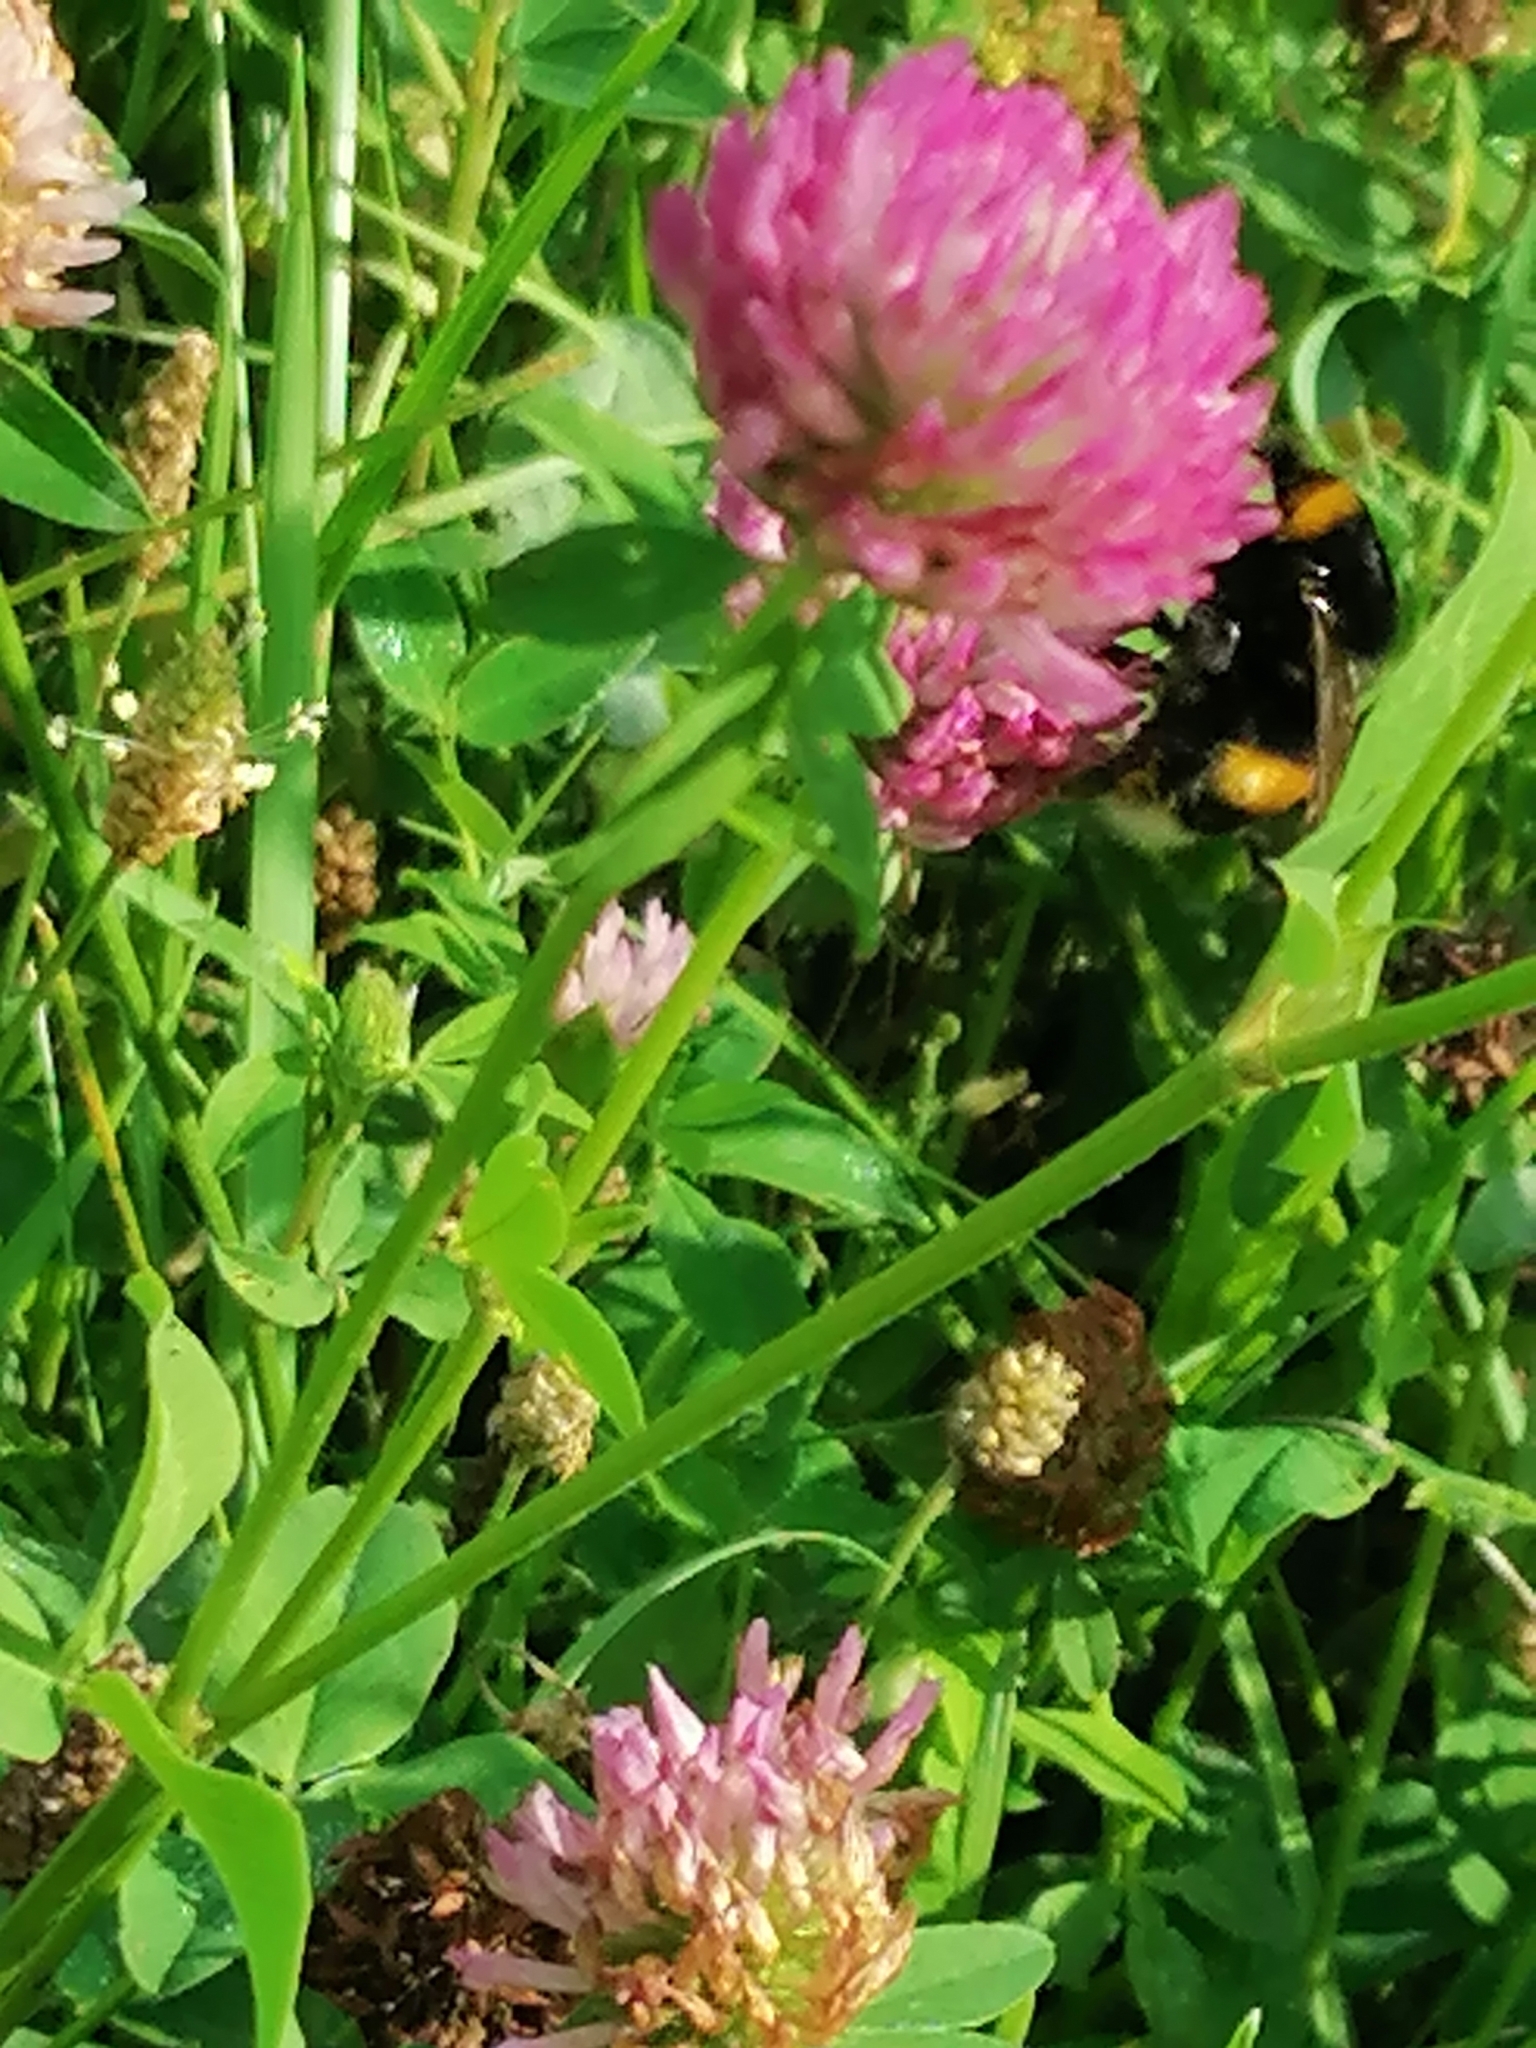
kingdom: Plantae
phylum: Tracheophyta
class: Magnoliopsida
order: Fabales
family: Fabaceae
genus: Trifolium
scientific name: Trifolium pratense
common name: Red clover
